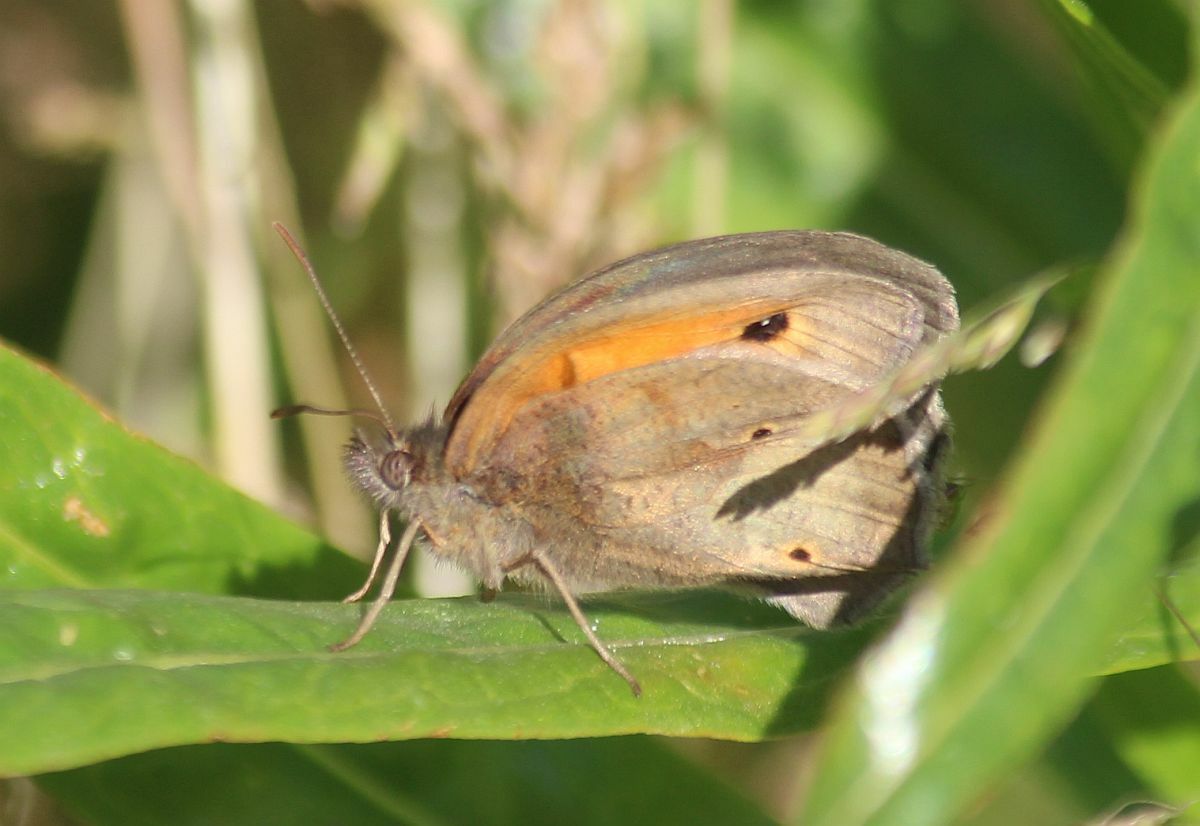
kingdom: Animalia
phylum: Arthropoda
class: Insecta
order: Lepidoptera
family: Nymphalidae
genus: Maniola
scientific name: Maniola jurtina
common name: Meadow brown
